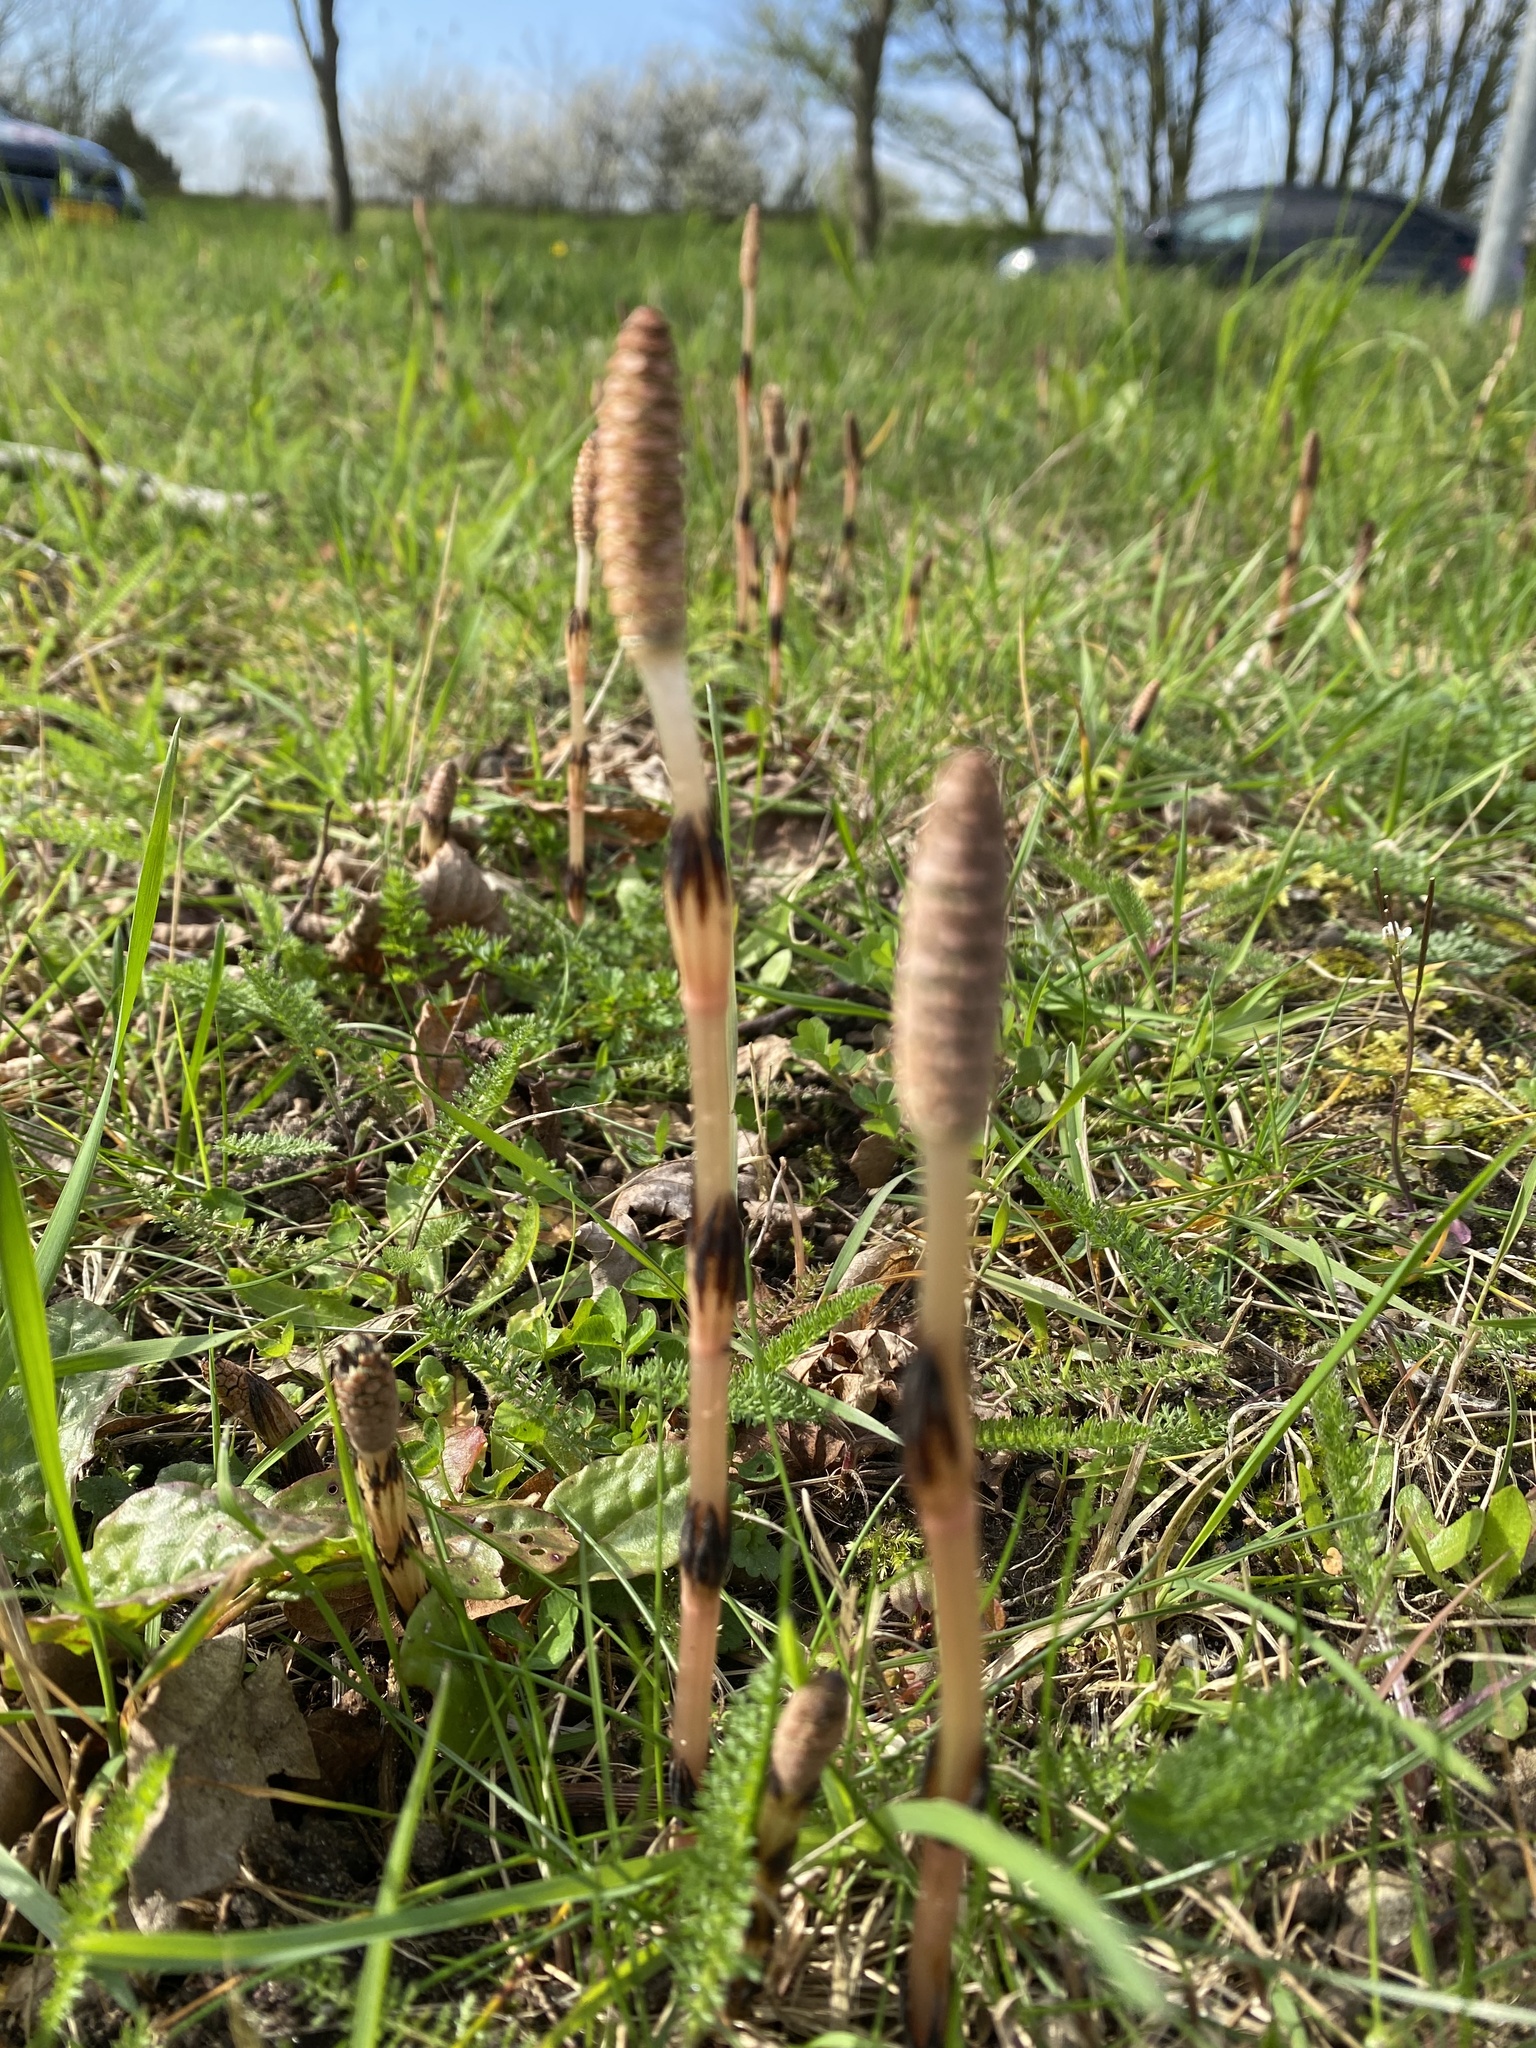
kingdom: Plantae
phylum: Tracheophyta
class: Polypodiopsida
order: Equisetales
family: Equisetaceae
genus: Equisetum
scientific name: Equisetum arvense
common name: Field horsetail
